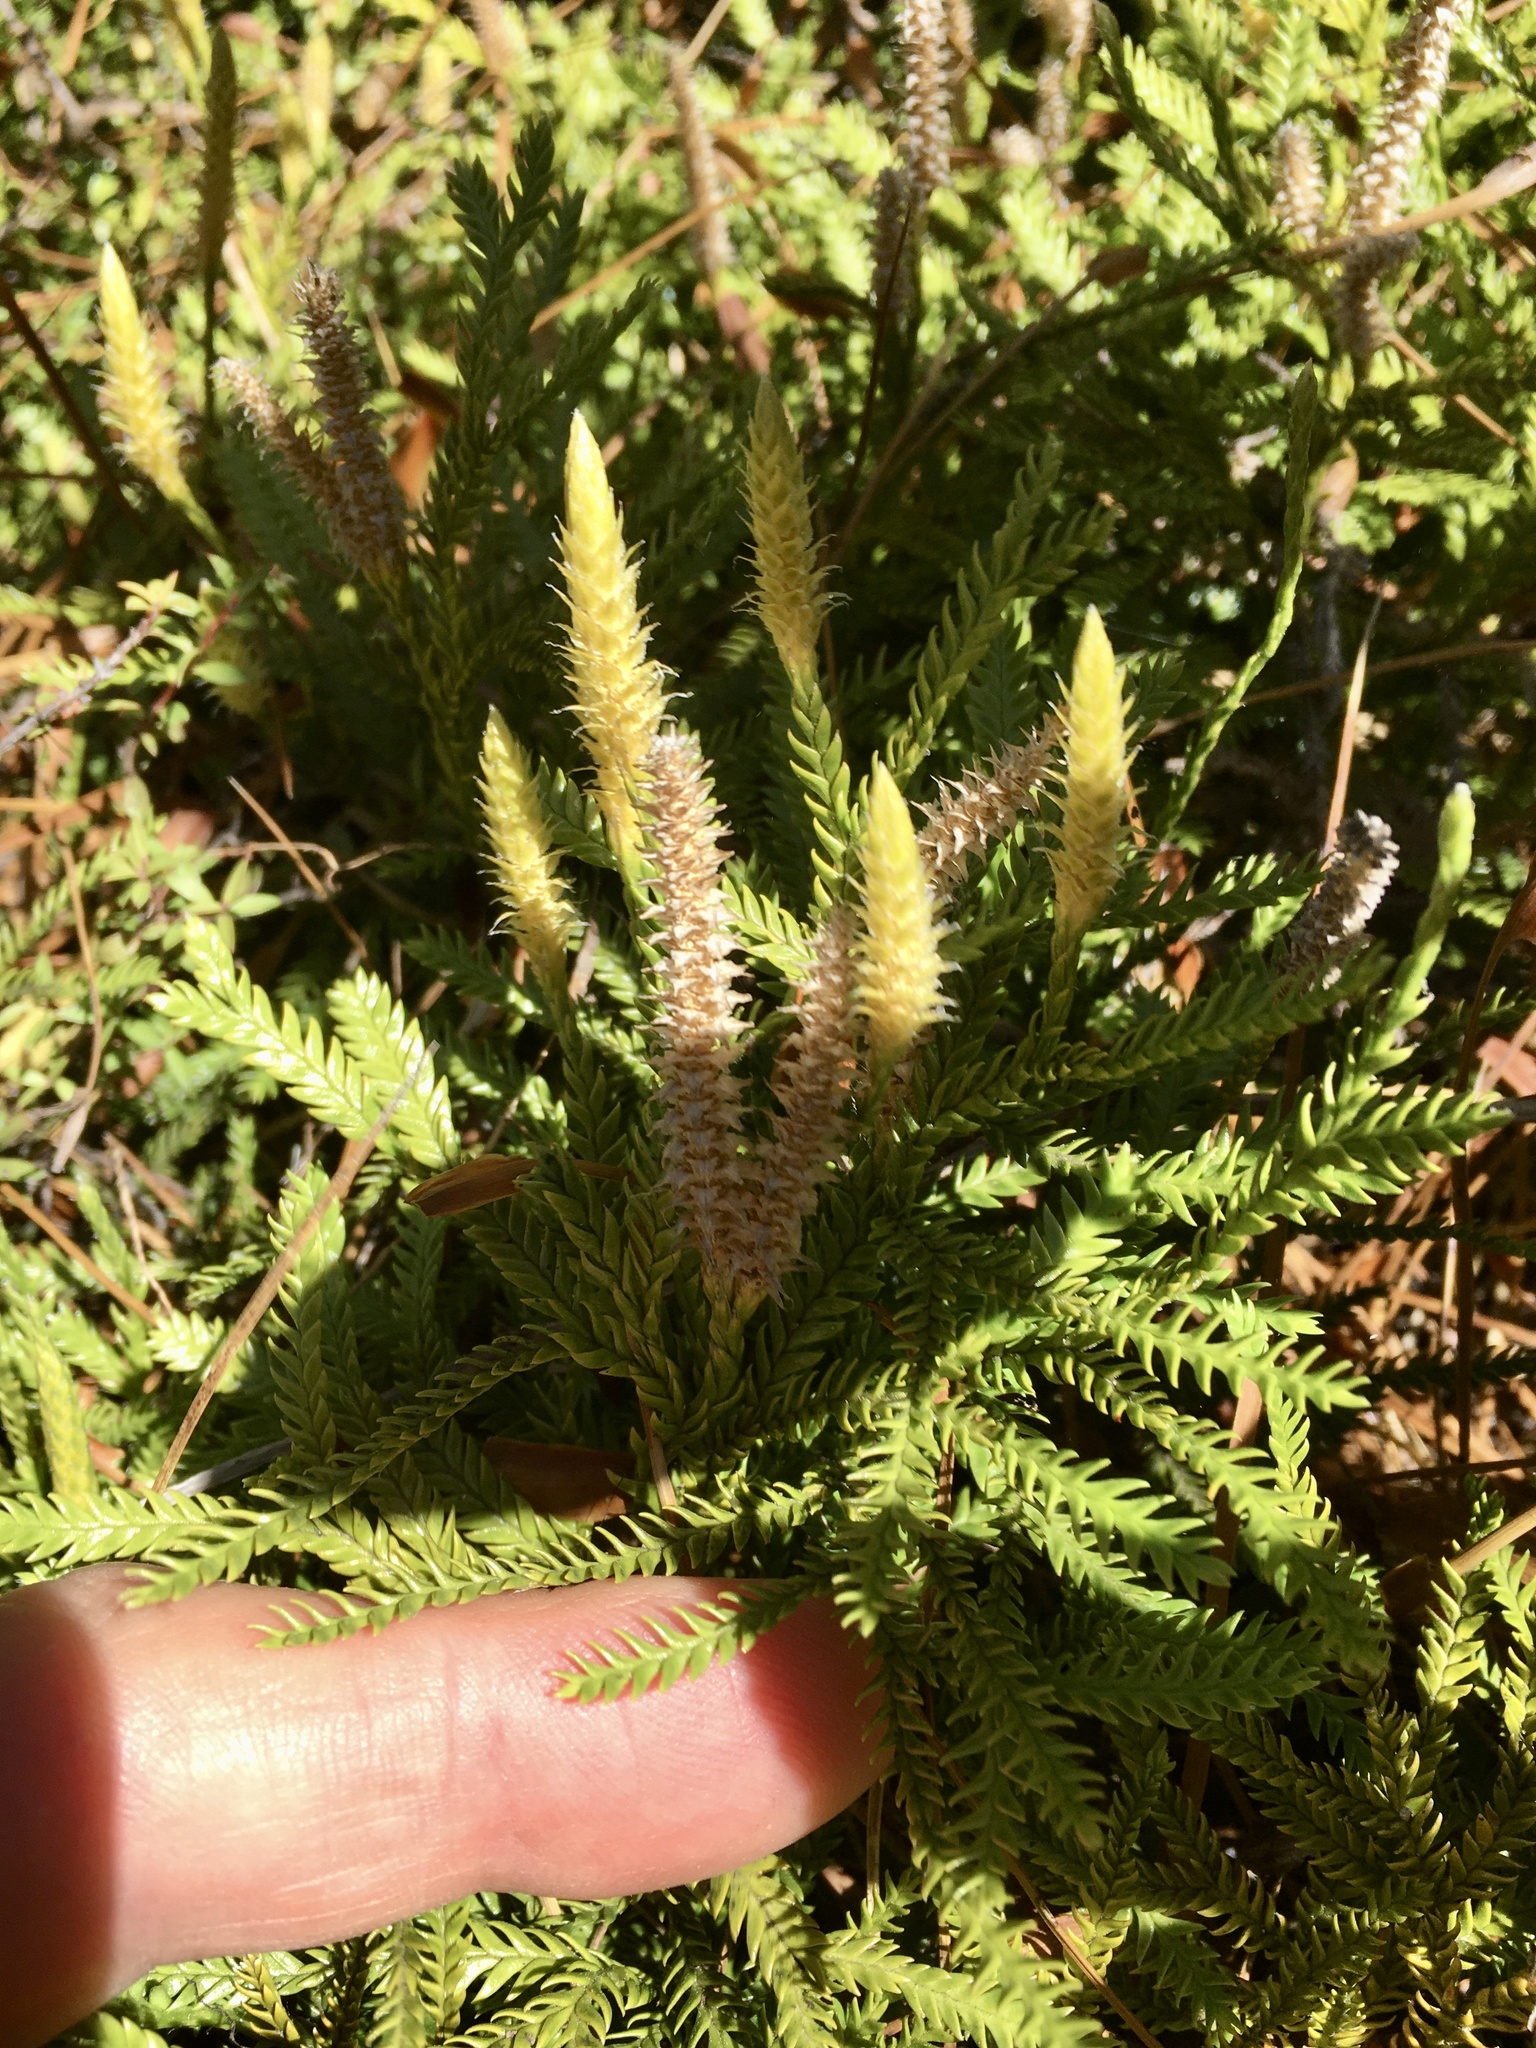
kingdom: Plantae
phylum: Tracheophyta
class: Lycopodiopsida
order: Lycopodiales
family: Lycopodiaceae
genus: Diphasium
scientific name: Diphasium scariosum
